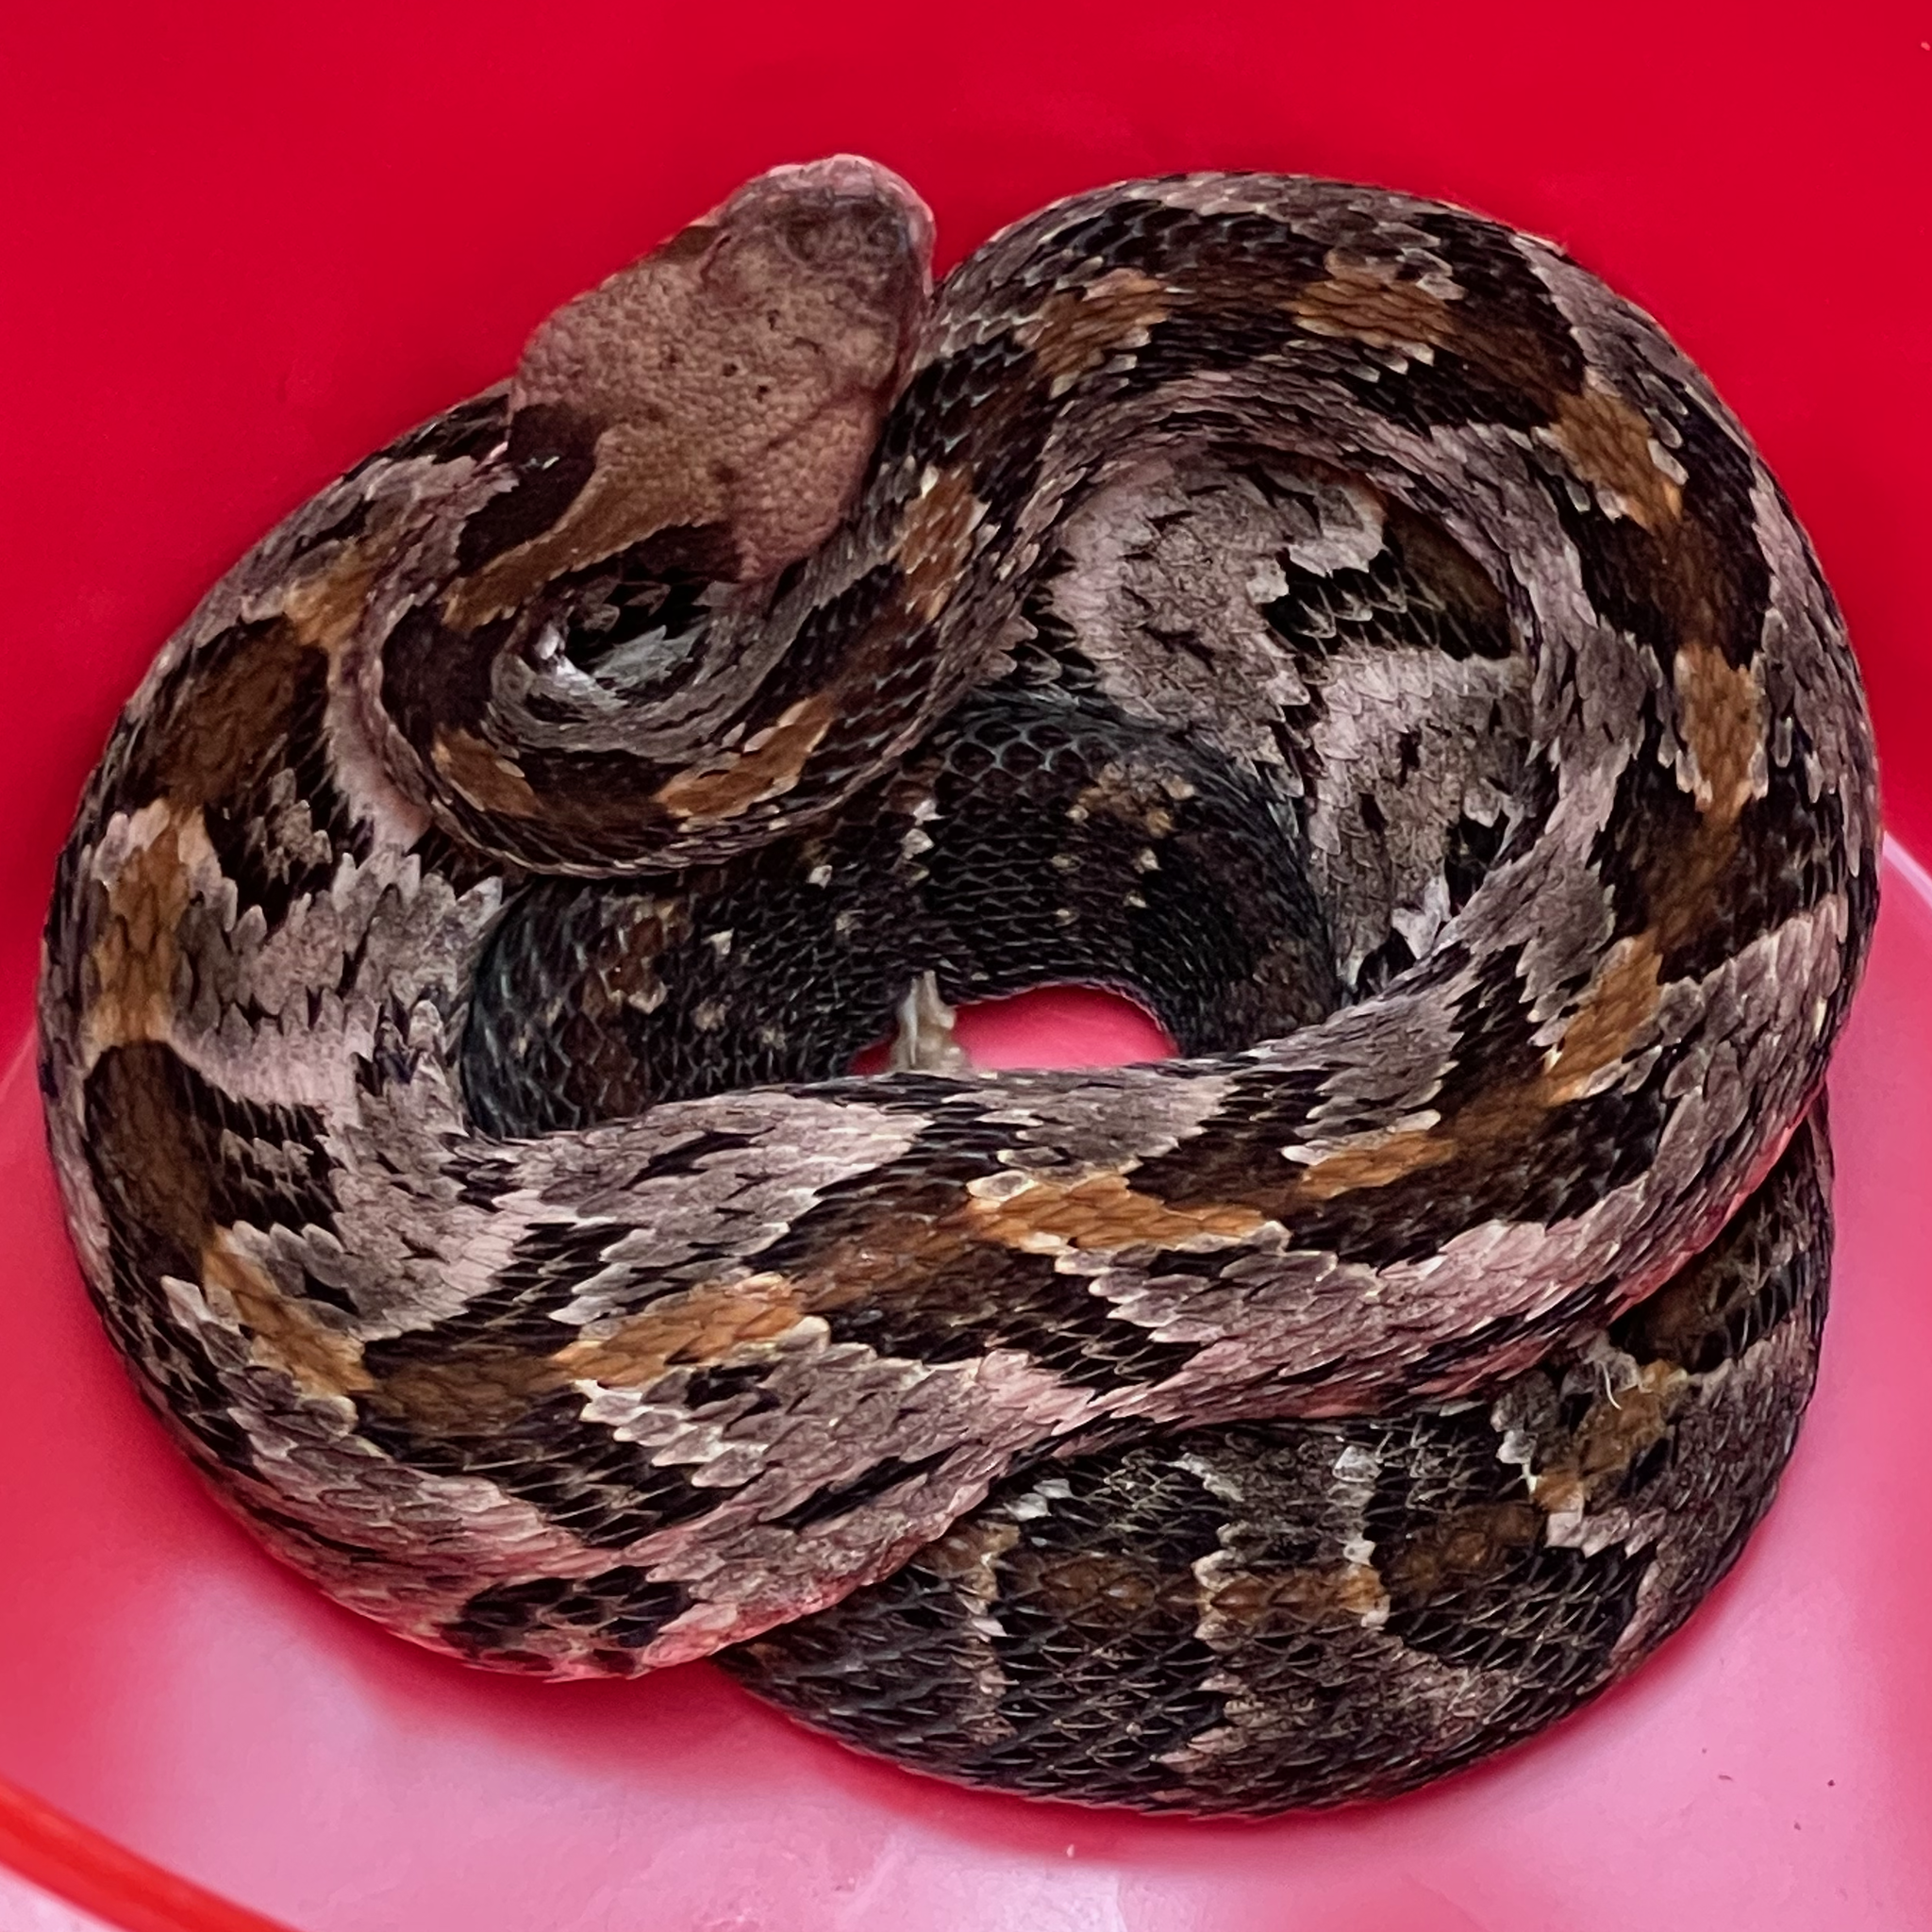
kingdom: Animalia
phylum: Chordata
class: Squamata
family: Viperidae
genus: Crotalus
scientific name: Crotalus horridus
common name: Timber rattlesnake
